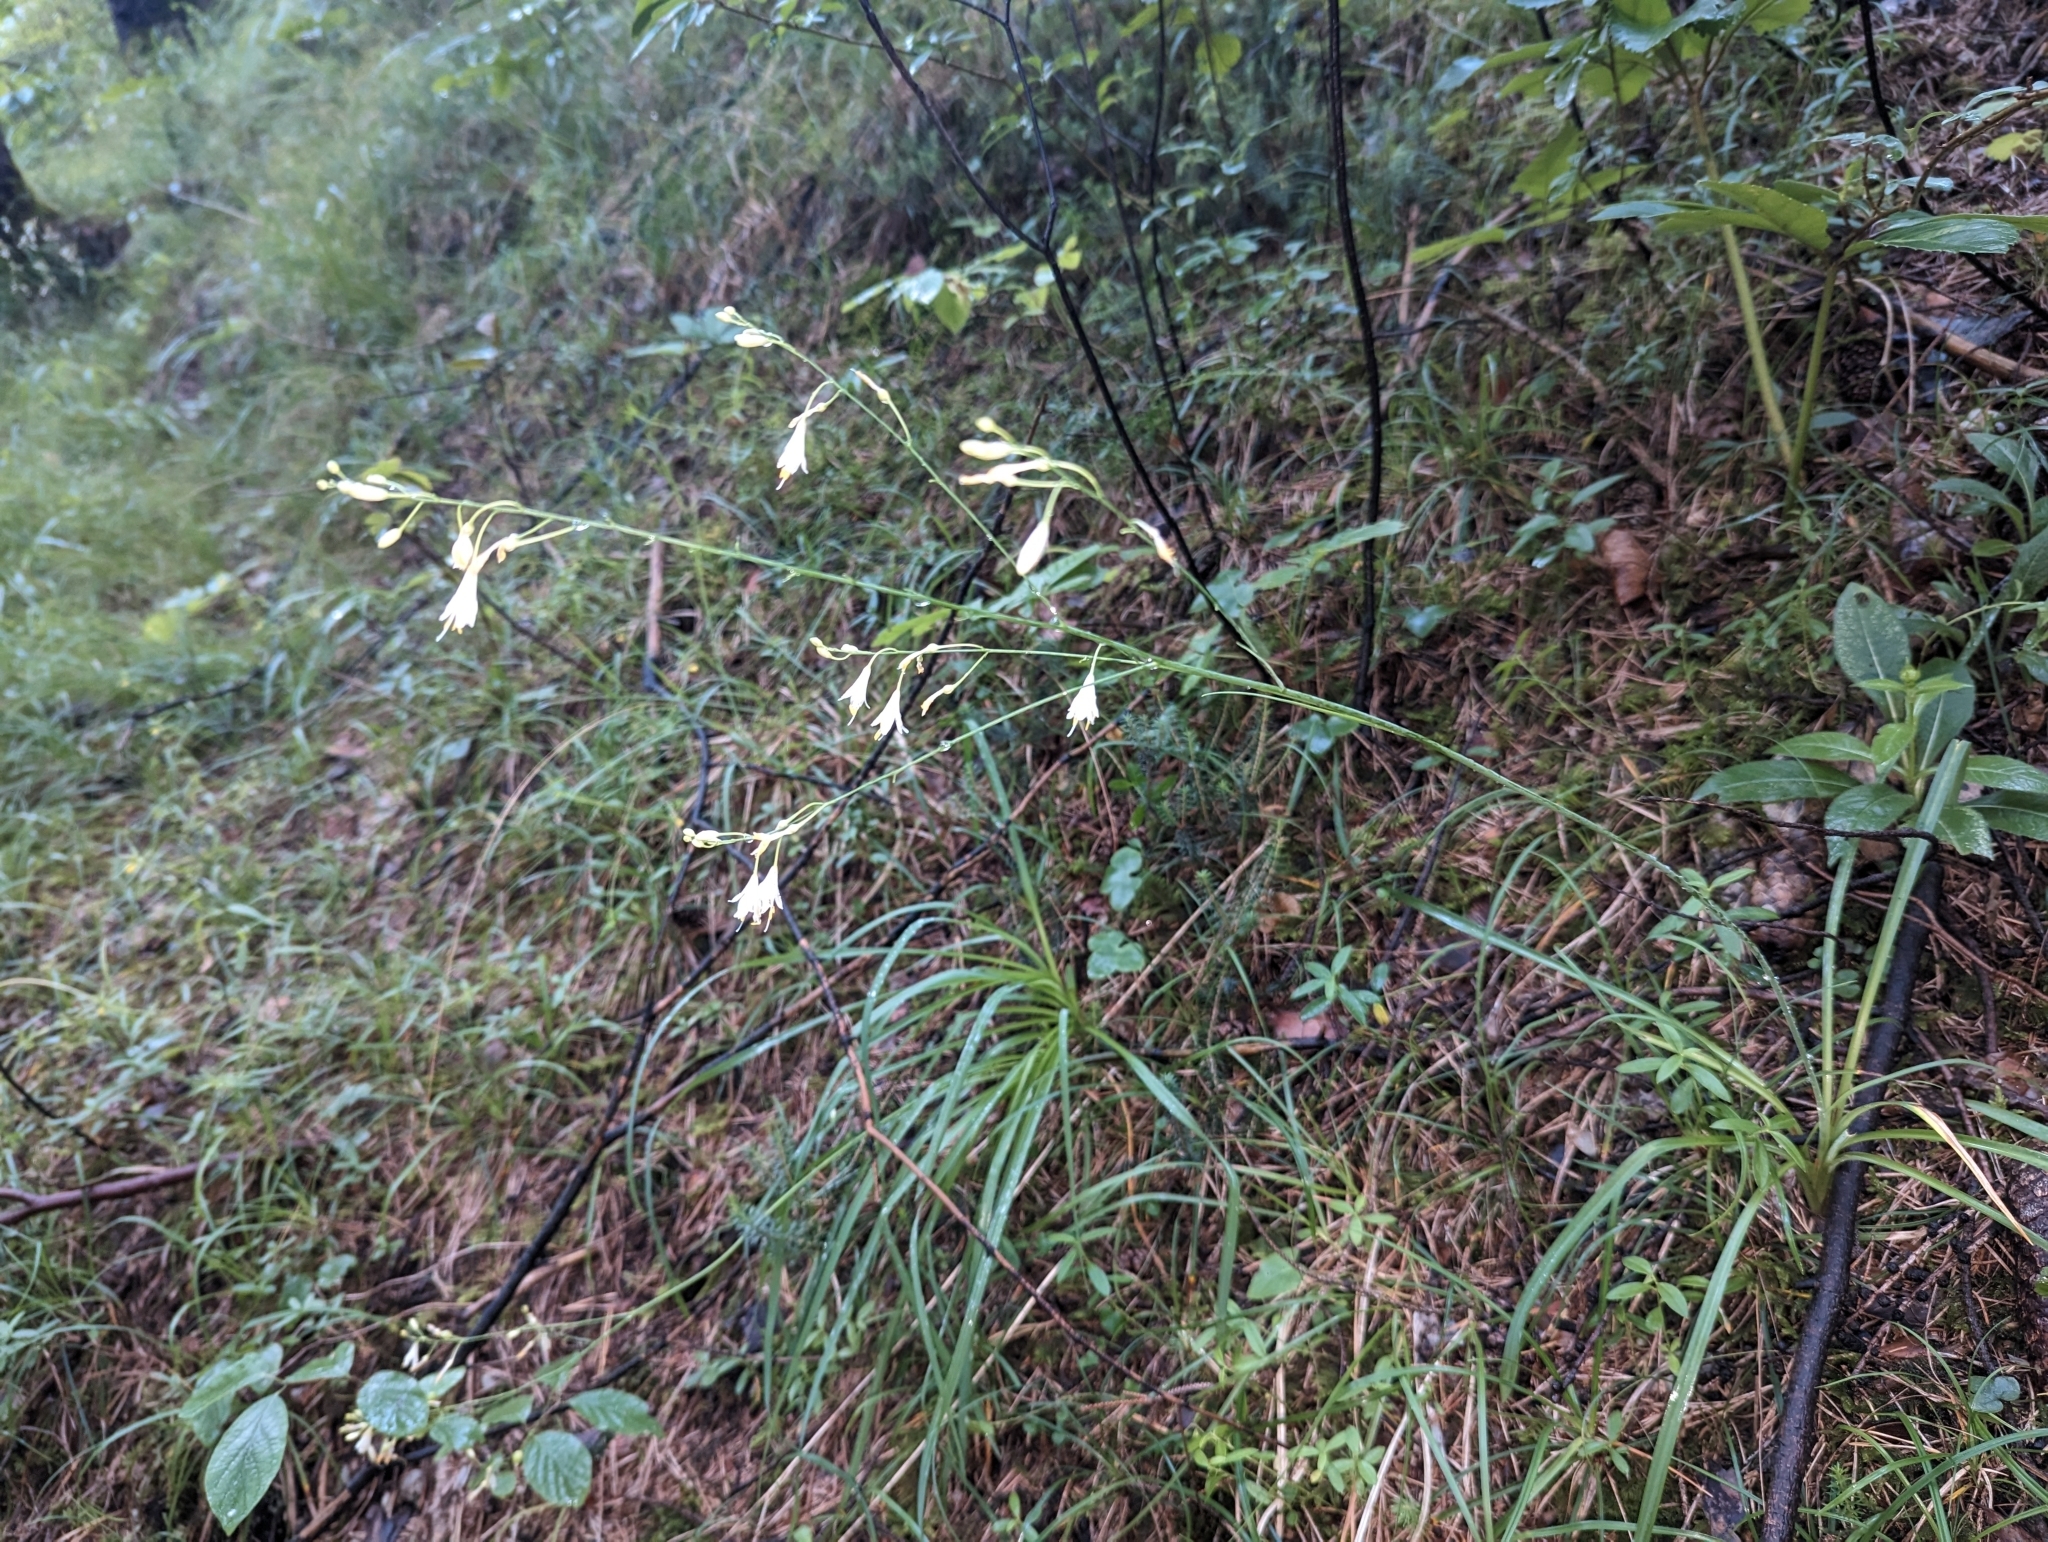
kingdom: Plantae
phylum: Tracheophyta
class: Liliopsida
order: Asparagales
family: Asparagaceae
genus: Anthericum
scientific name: Anthericum ramosum
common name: Branched st. bernard's-lily
